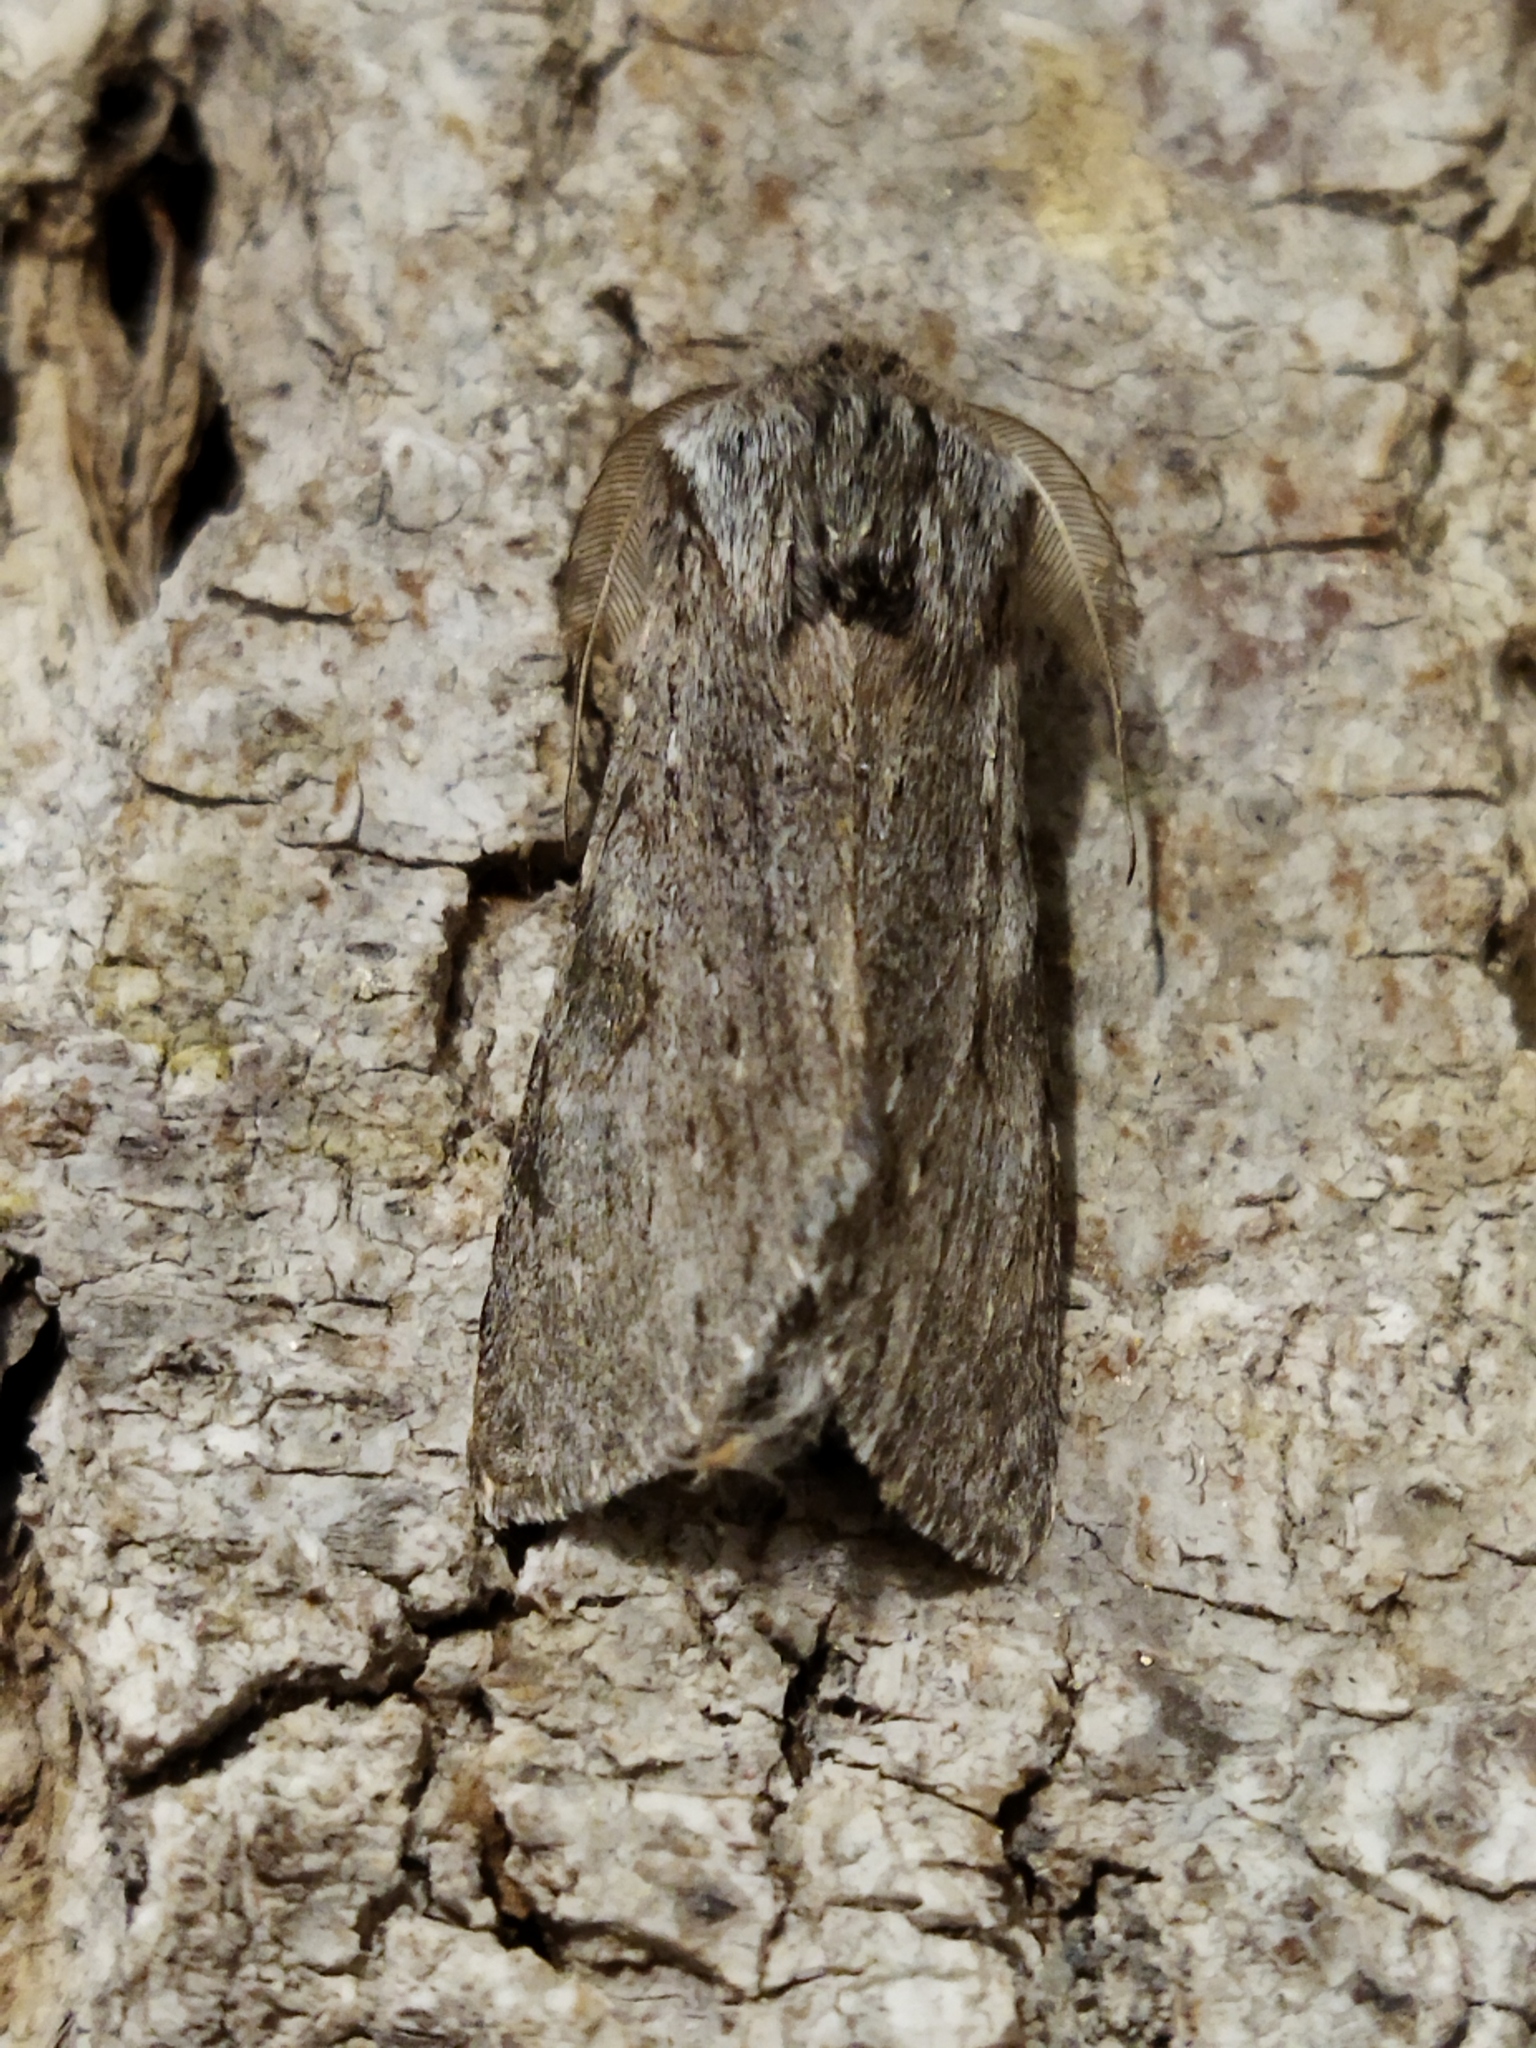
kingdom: Animalia
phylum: Arthropoda
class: Insecta
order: Lepidoptera
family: Notodontidae
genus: Dicranura
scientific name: Dicranura ulmi
